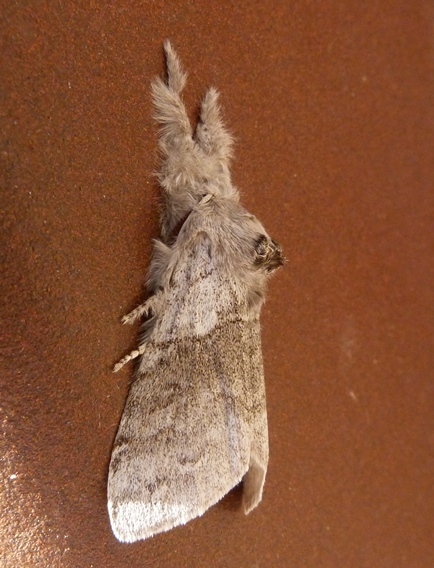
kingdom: Animalia
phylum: Arthropoda
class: Insecta
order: Lepidoptera
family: Erebidae
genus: Calliteara
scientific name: Calliteara pudibunda
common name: Pale tussock
